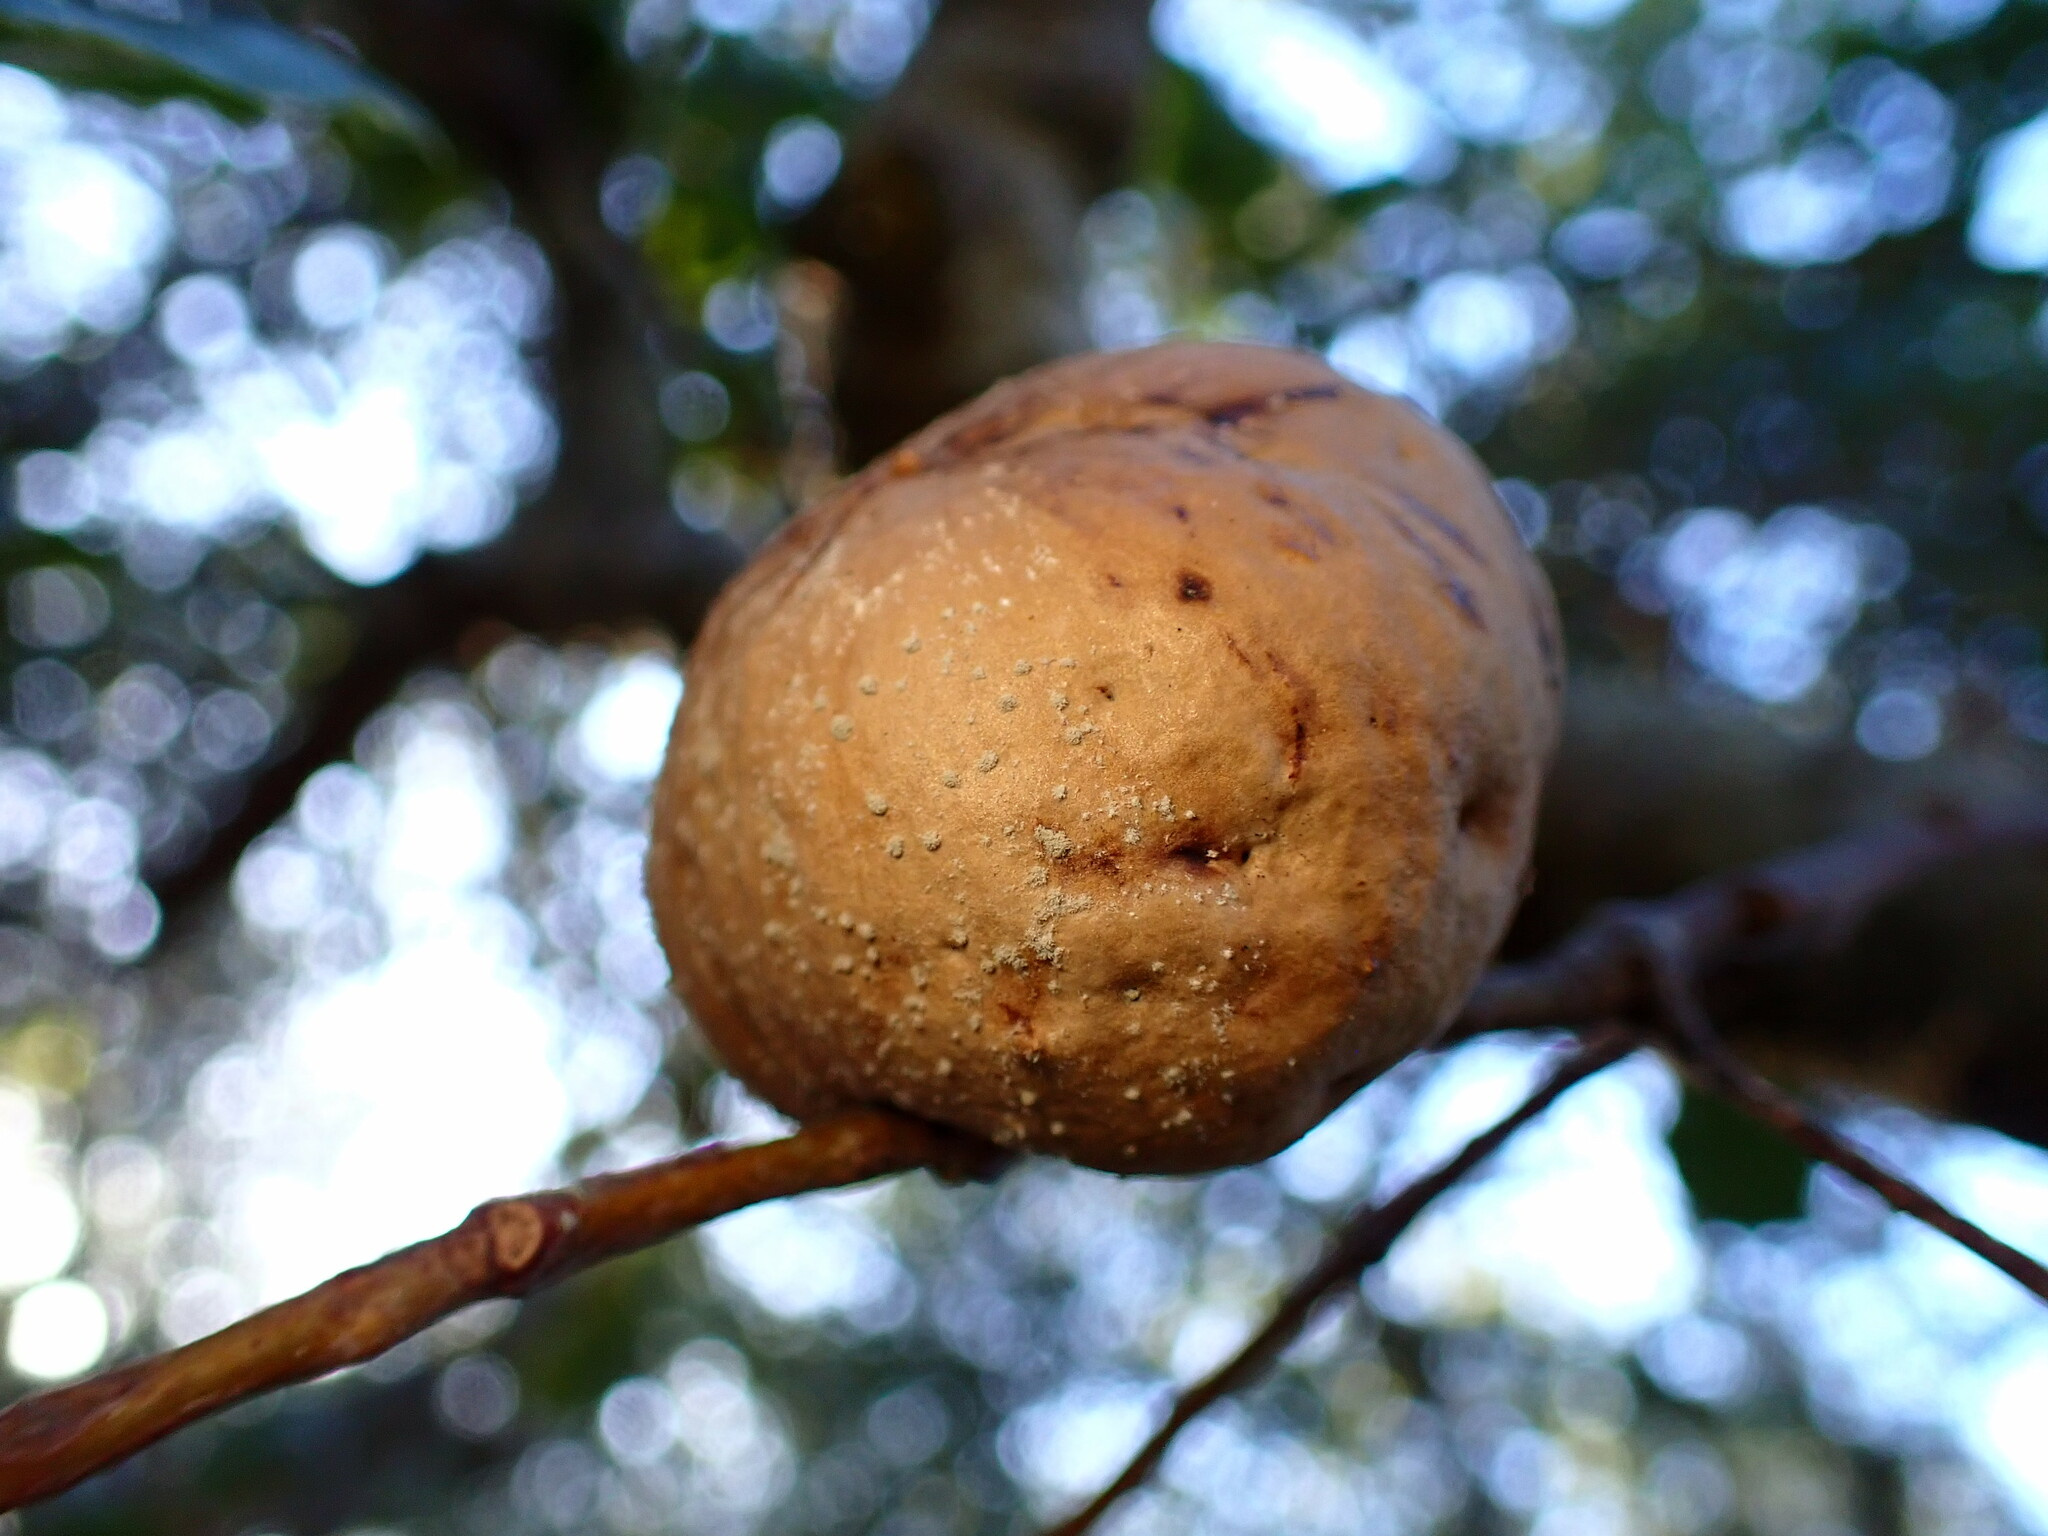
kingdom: Animalia
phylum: Arthropoda
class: Insecta
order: Hymenoptera
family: Cynipidae
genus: Amphibolips
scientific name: Amphibolips quercuspomiformis
